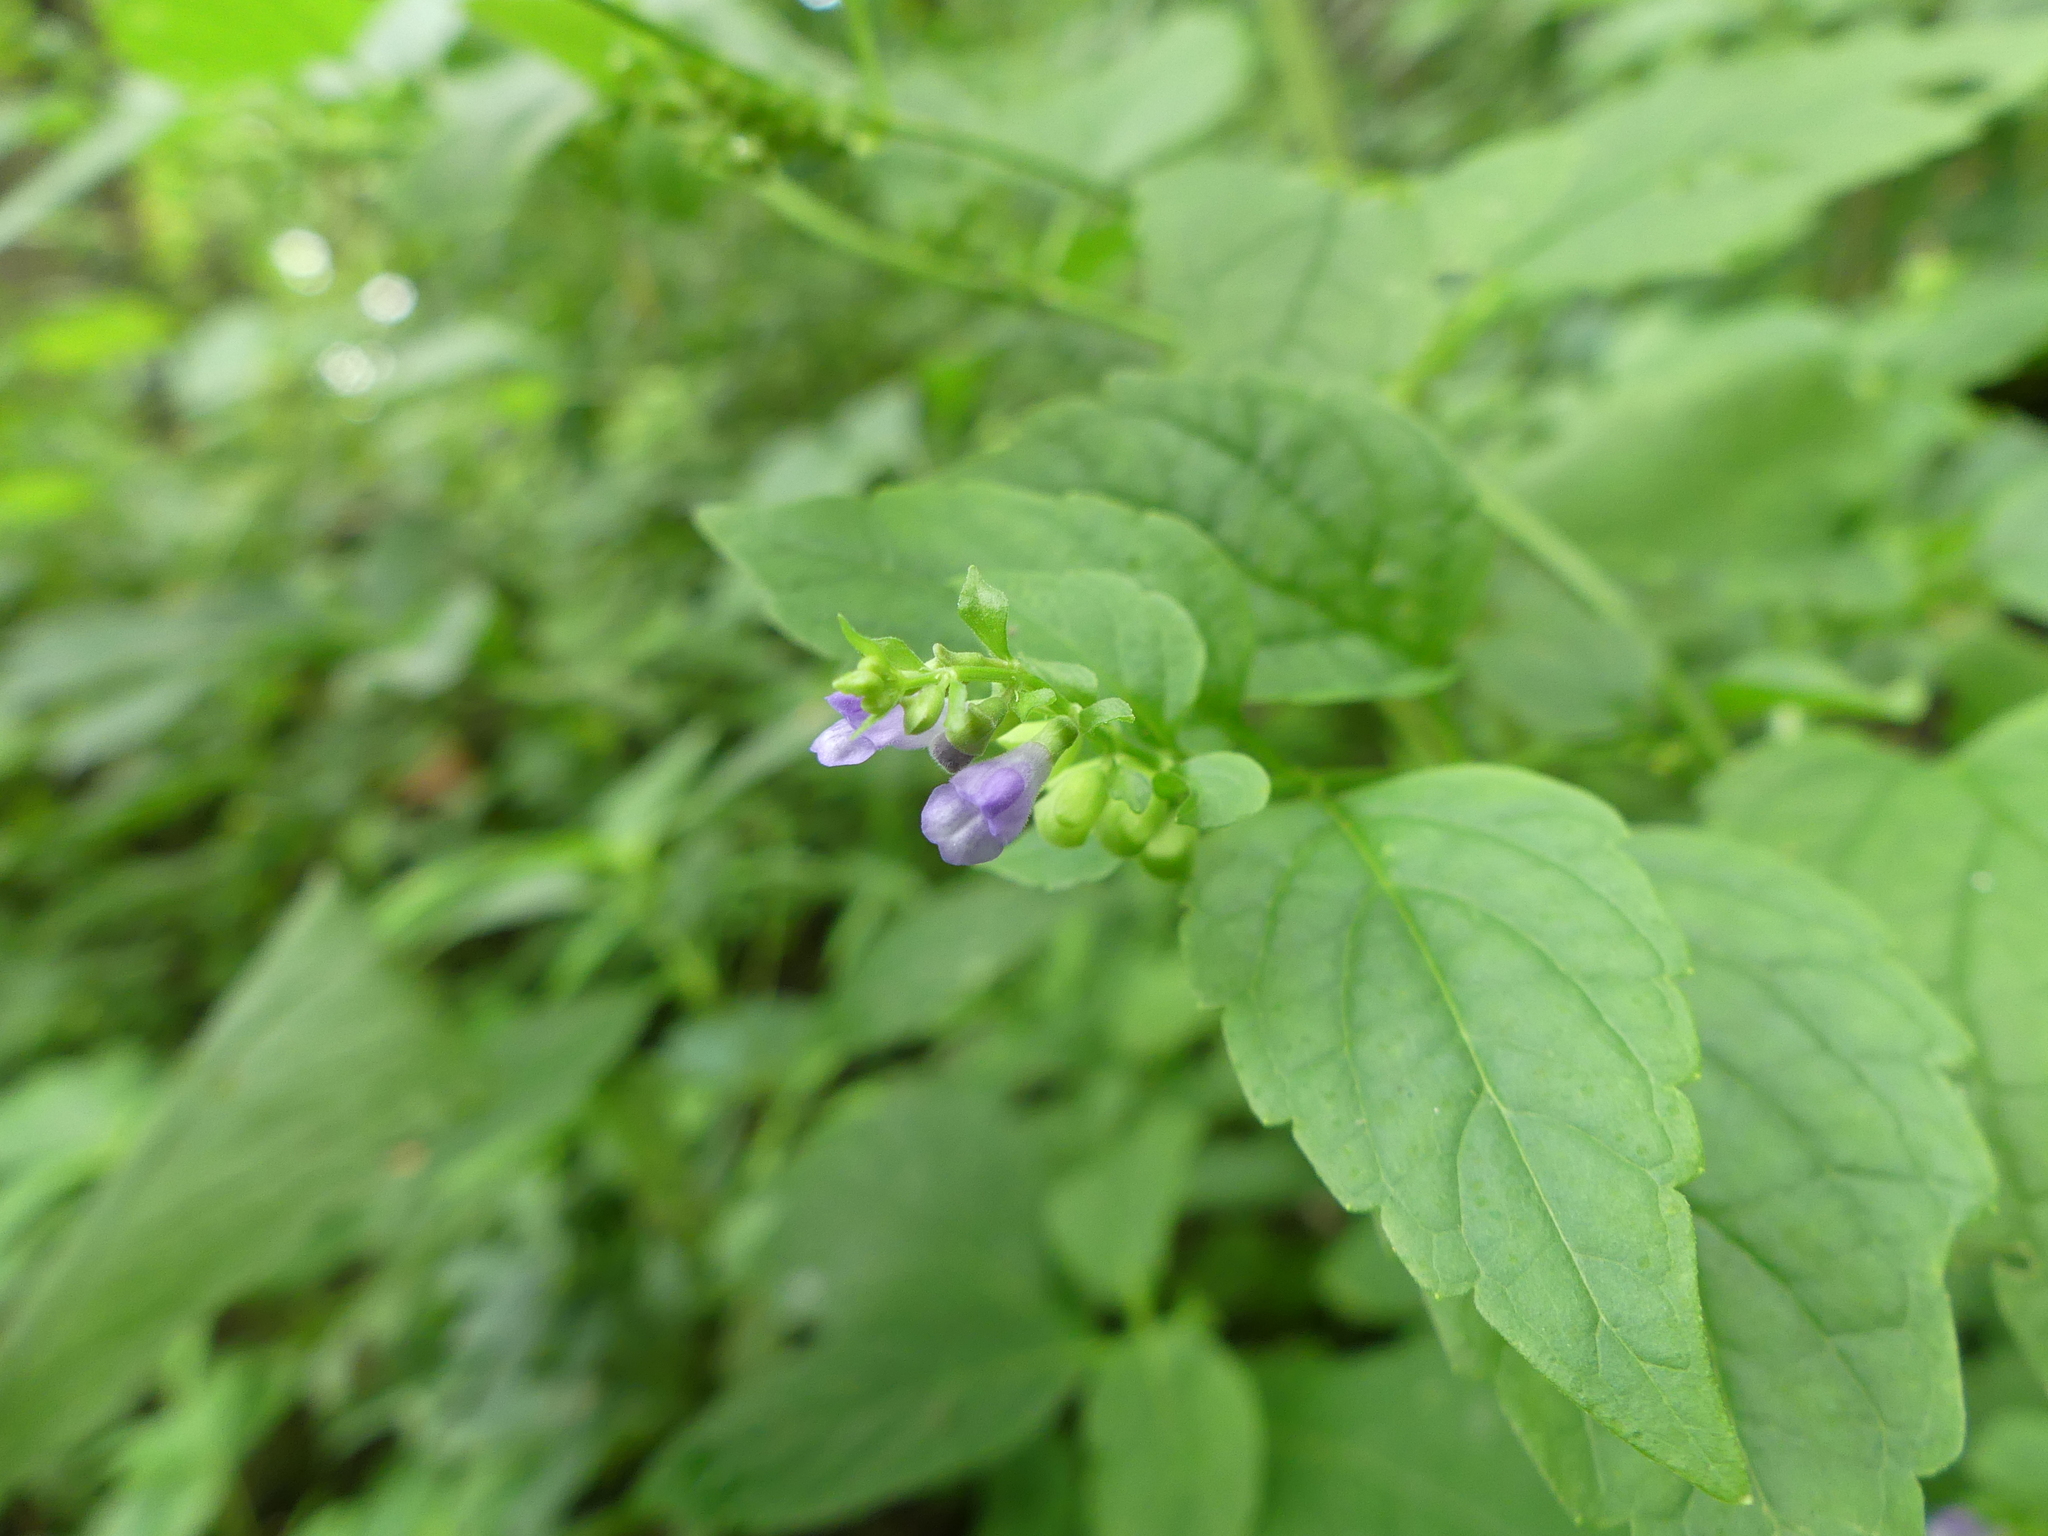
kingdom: Plantae
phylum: Tracheophyta
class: Magnoliopsida
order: Lamiales
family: Lamiaceae
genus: Scutellaria
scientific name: Scutellaria lateriflora
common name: Blue skullcap
